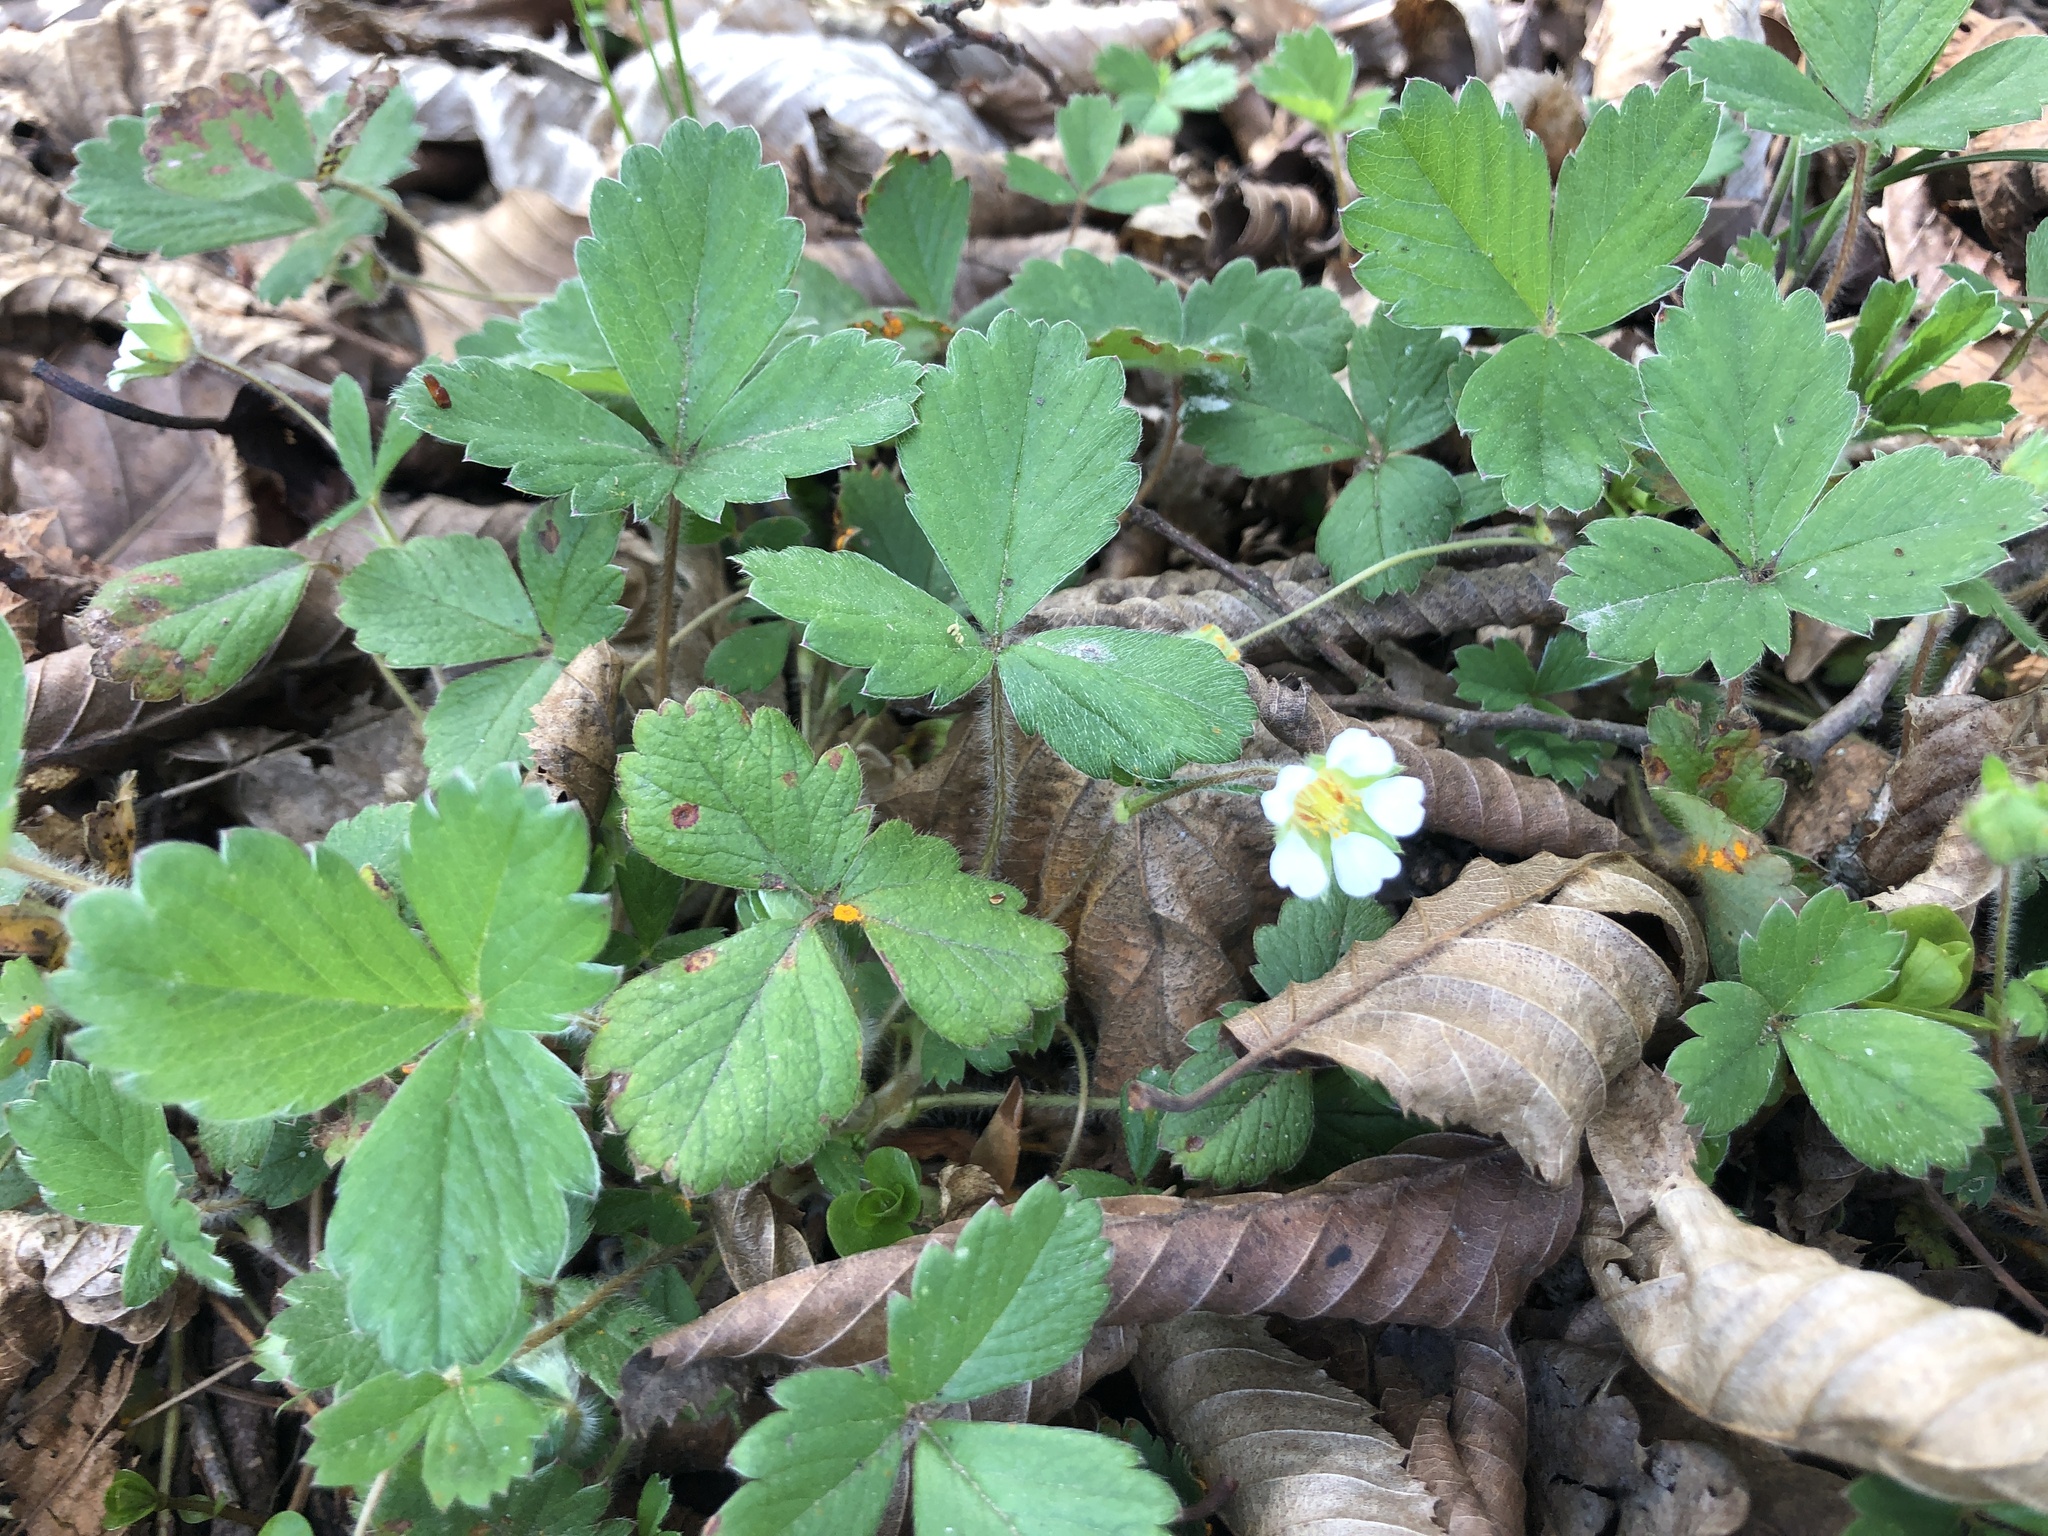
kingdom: Plantae
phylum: Tracheophyta
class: Magnoliopsida
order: Rosales
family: Rosaceae
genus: Potentilla
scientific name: Potentilla sterilis
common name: Barren strawberry
